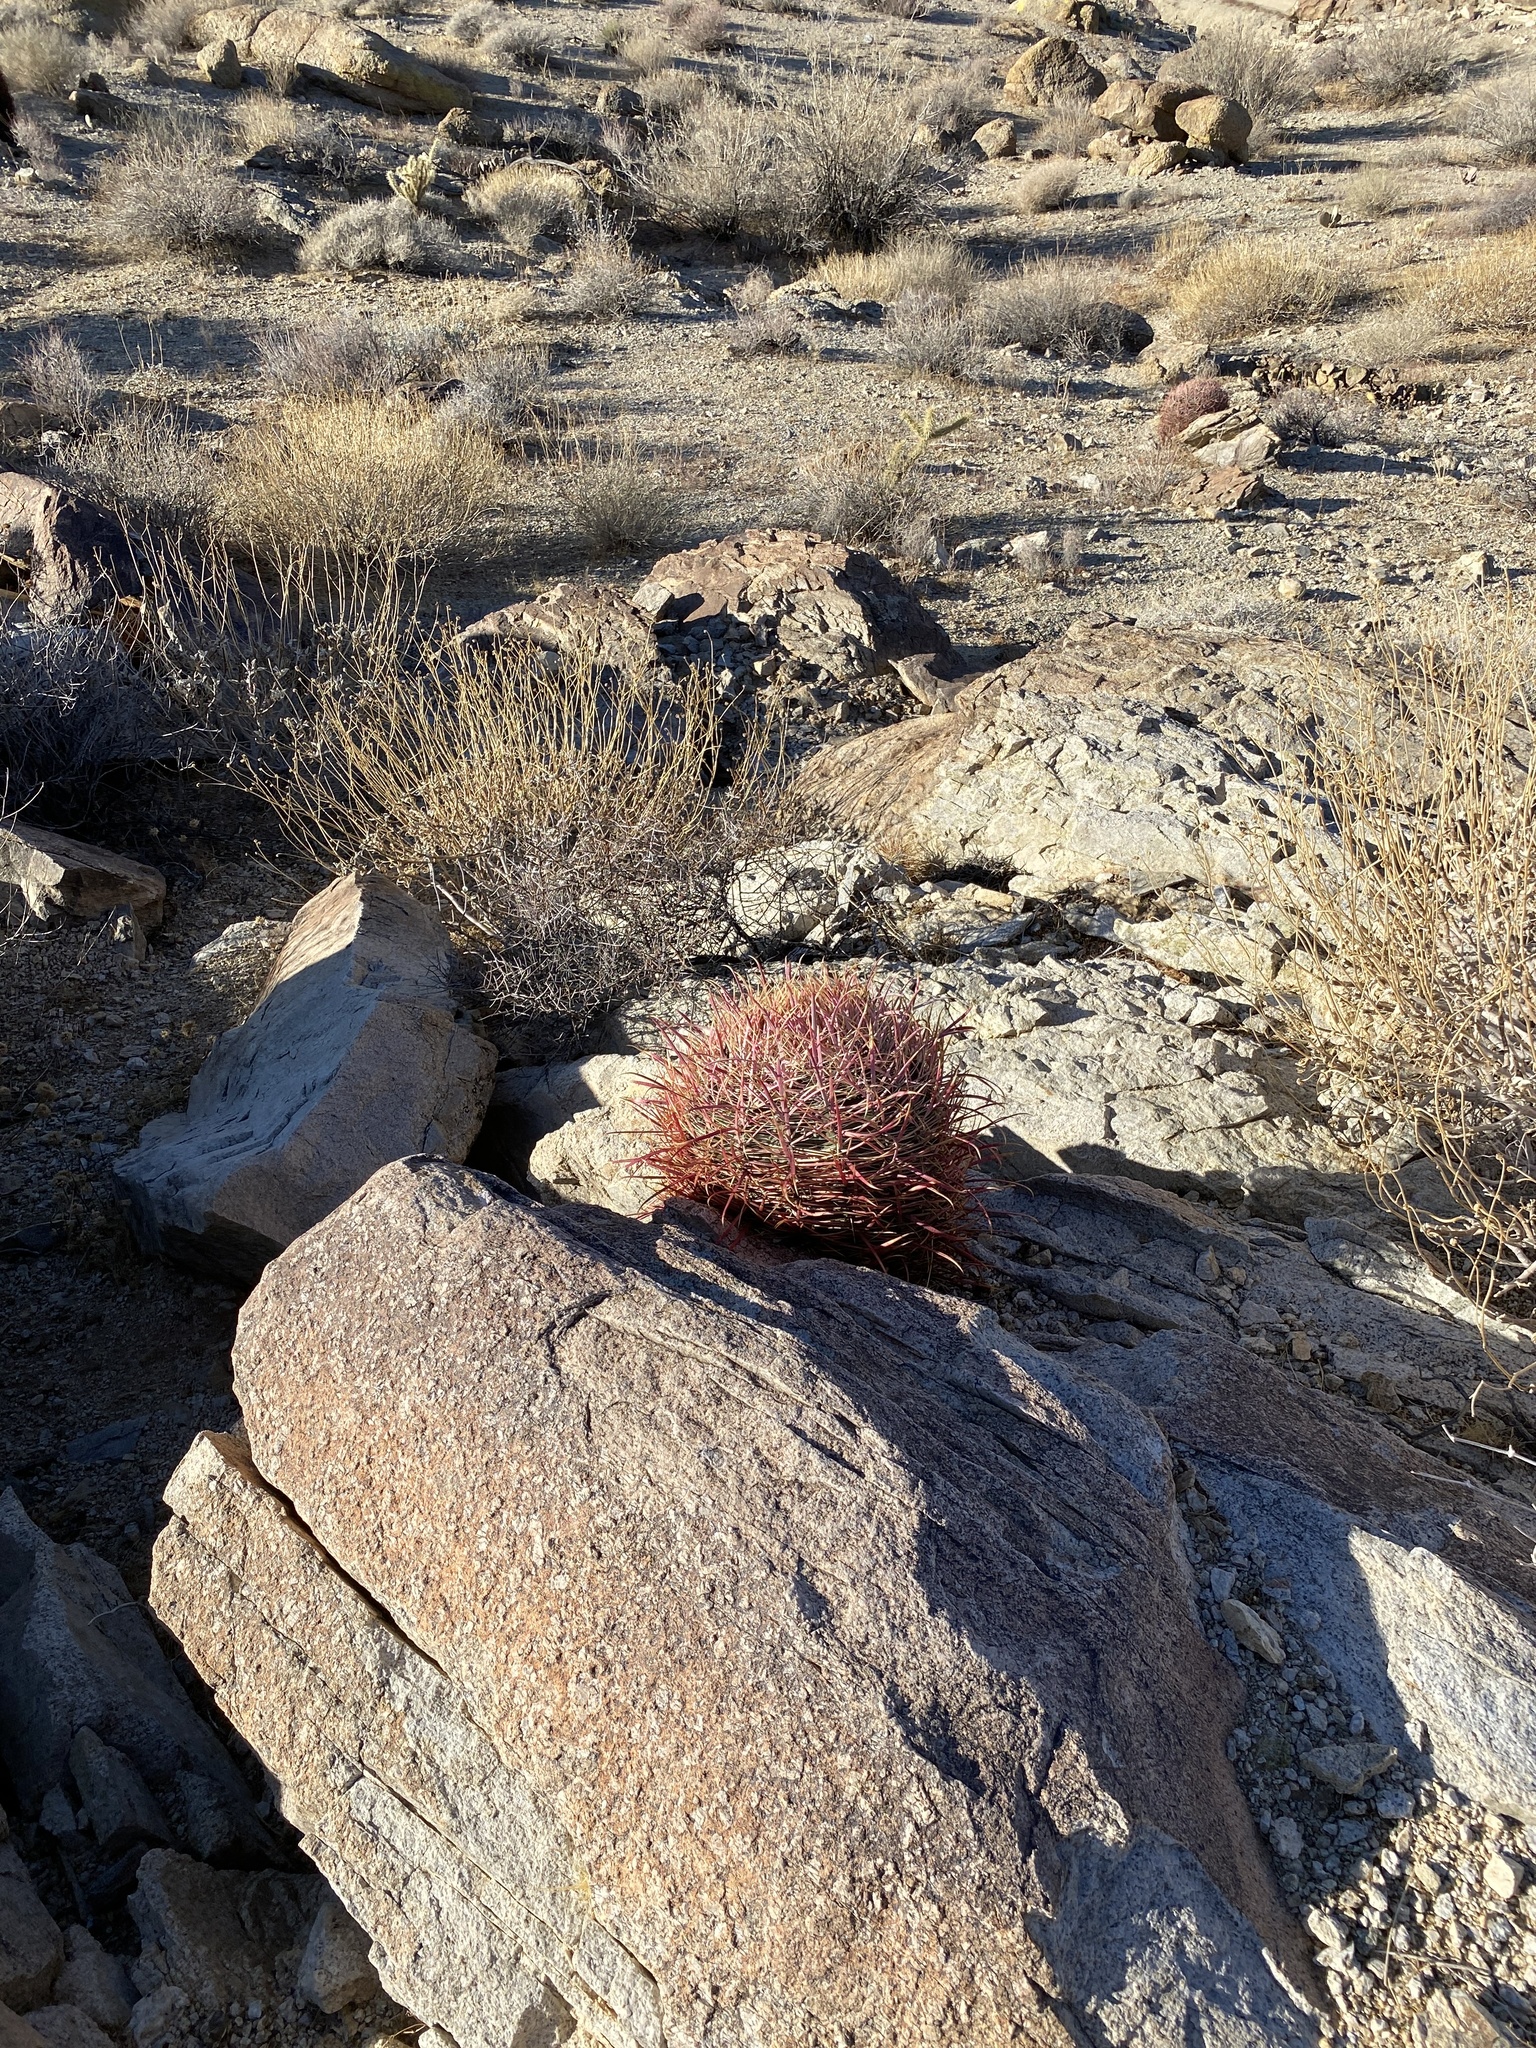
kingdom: Plantae
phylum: Tracheophyta
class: Magnoliopsida
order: Caryophyllales
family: Cactaceae
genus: Ferocactus
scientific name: Ferocactus cylindraceus
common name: California barrel cactus
